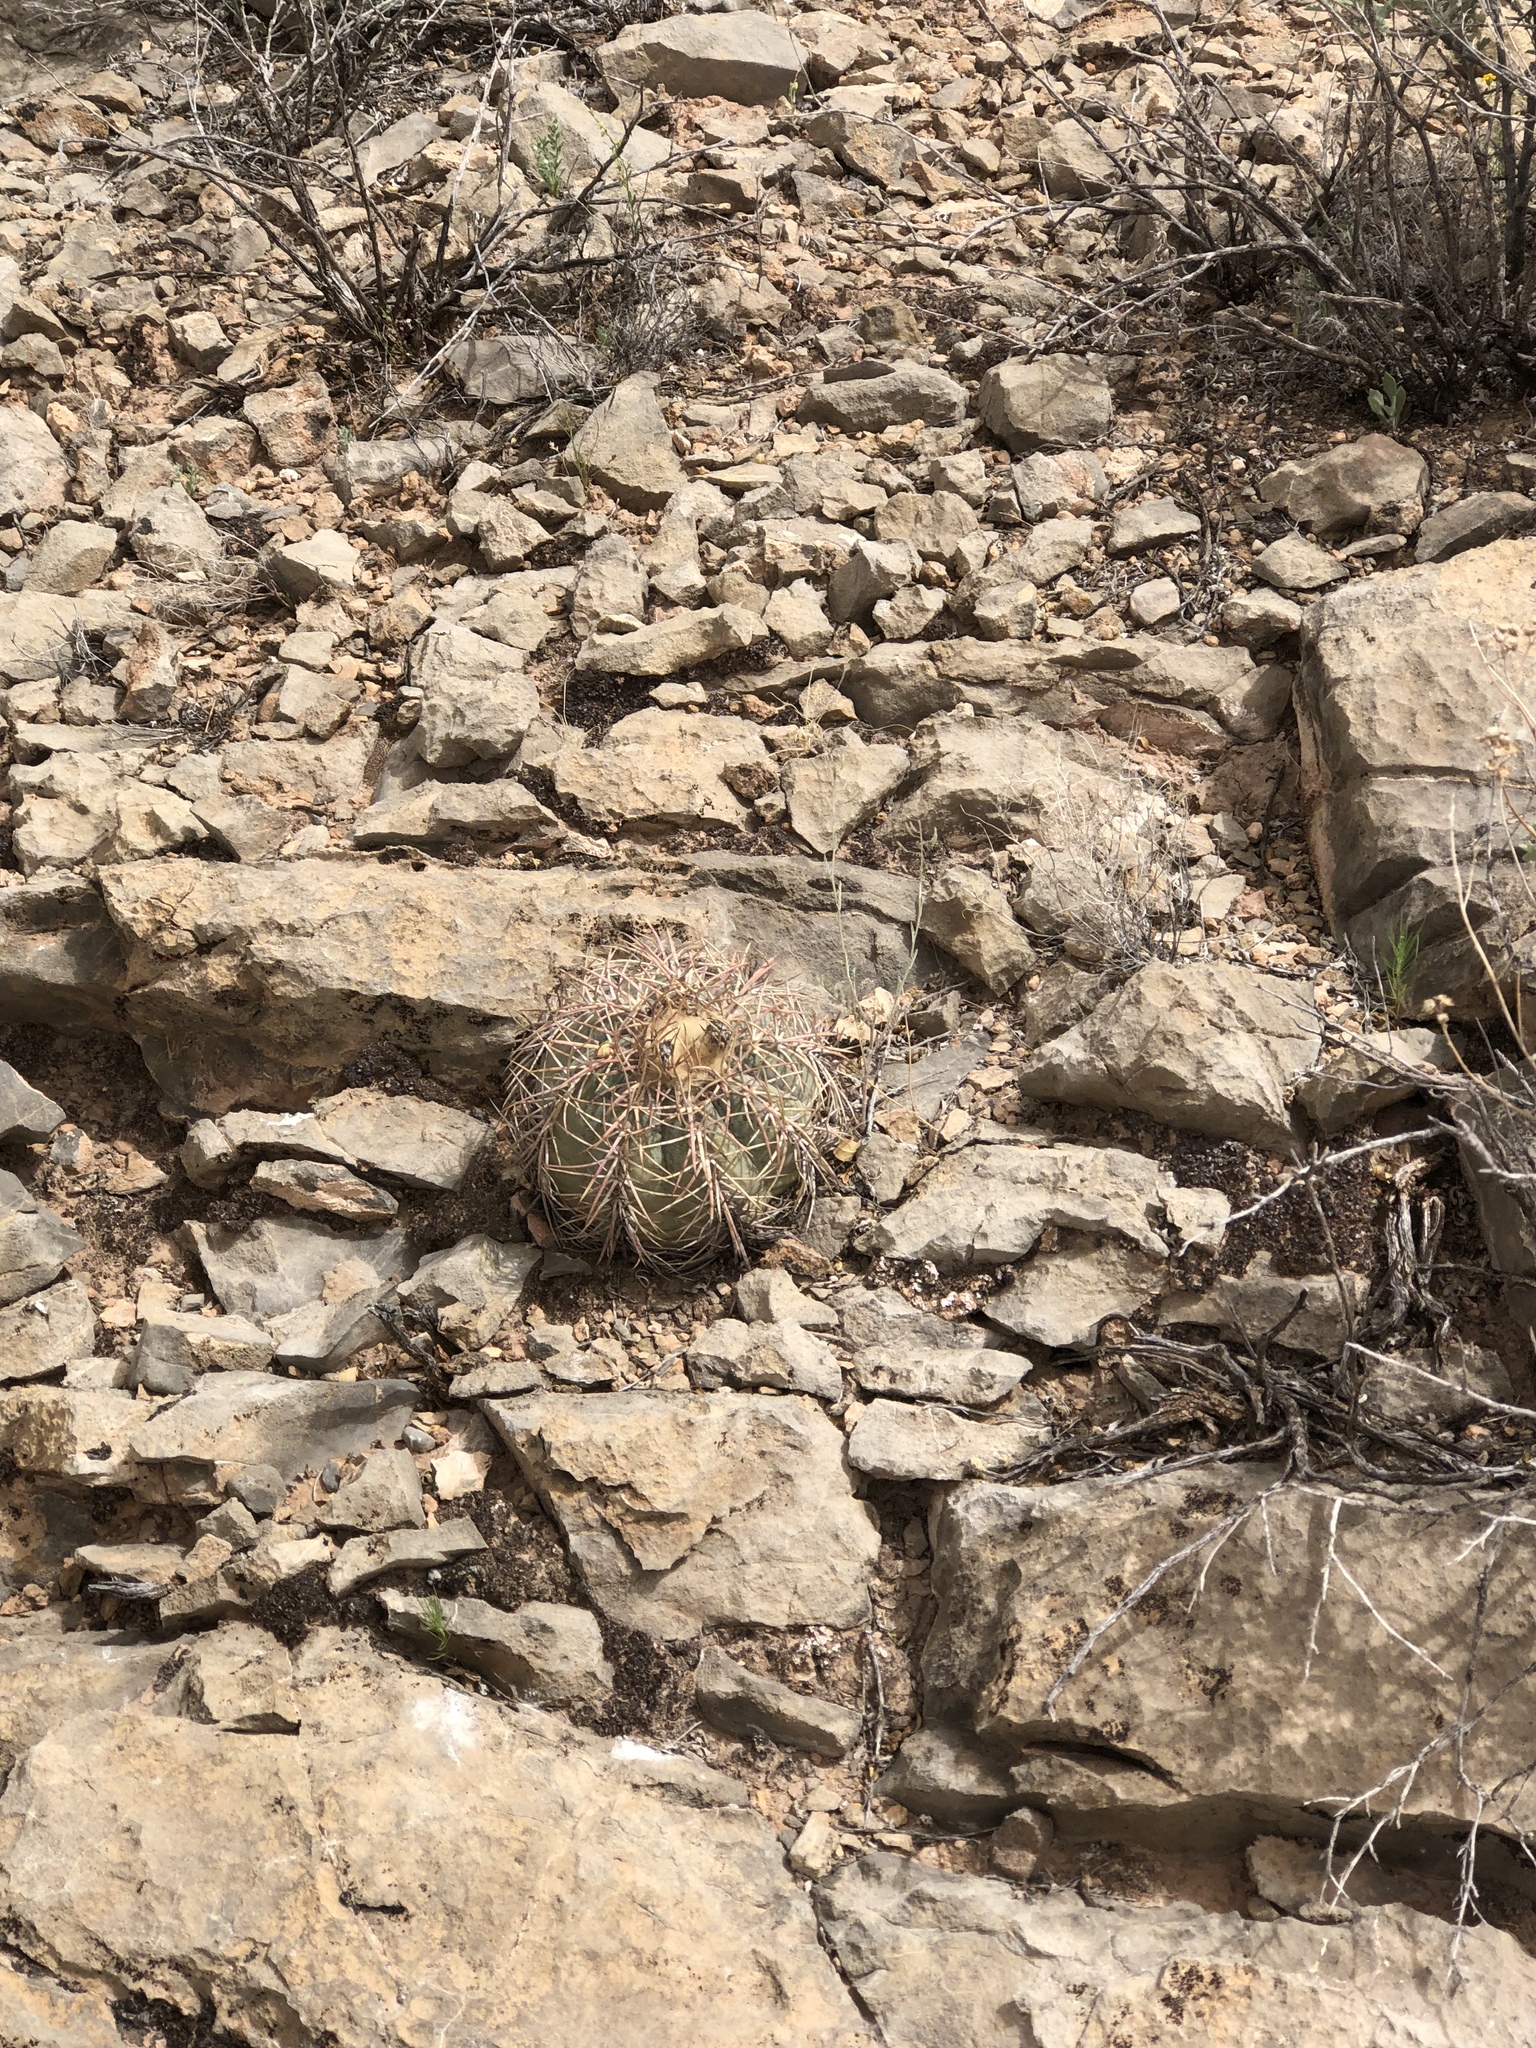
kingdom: Plantae
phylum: Tracheophyta
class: Magnoliopsida
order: Caryophyllales
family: Cactaceae
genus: Echinocactus
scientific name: Echinocactus horizonthalonius
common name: Devilshead
